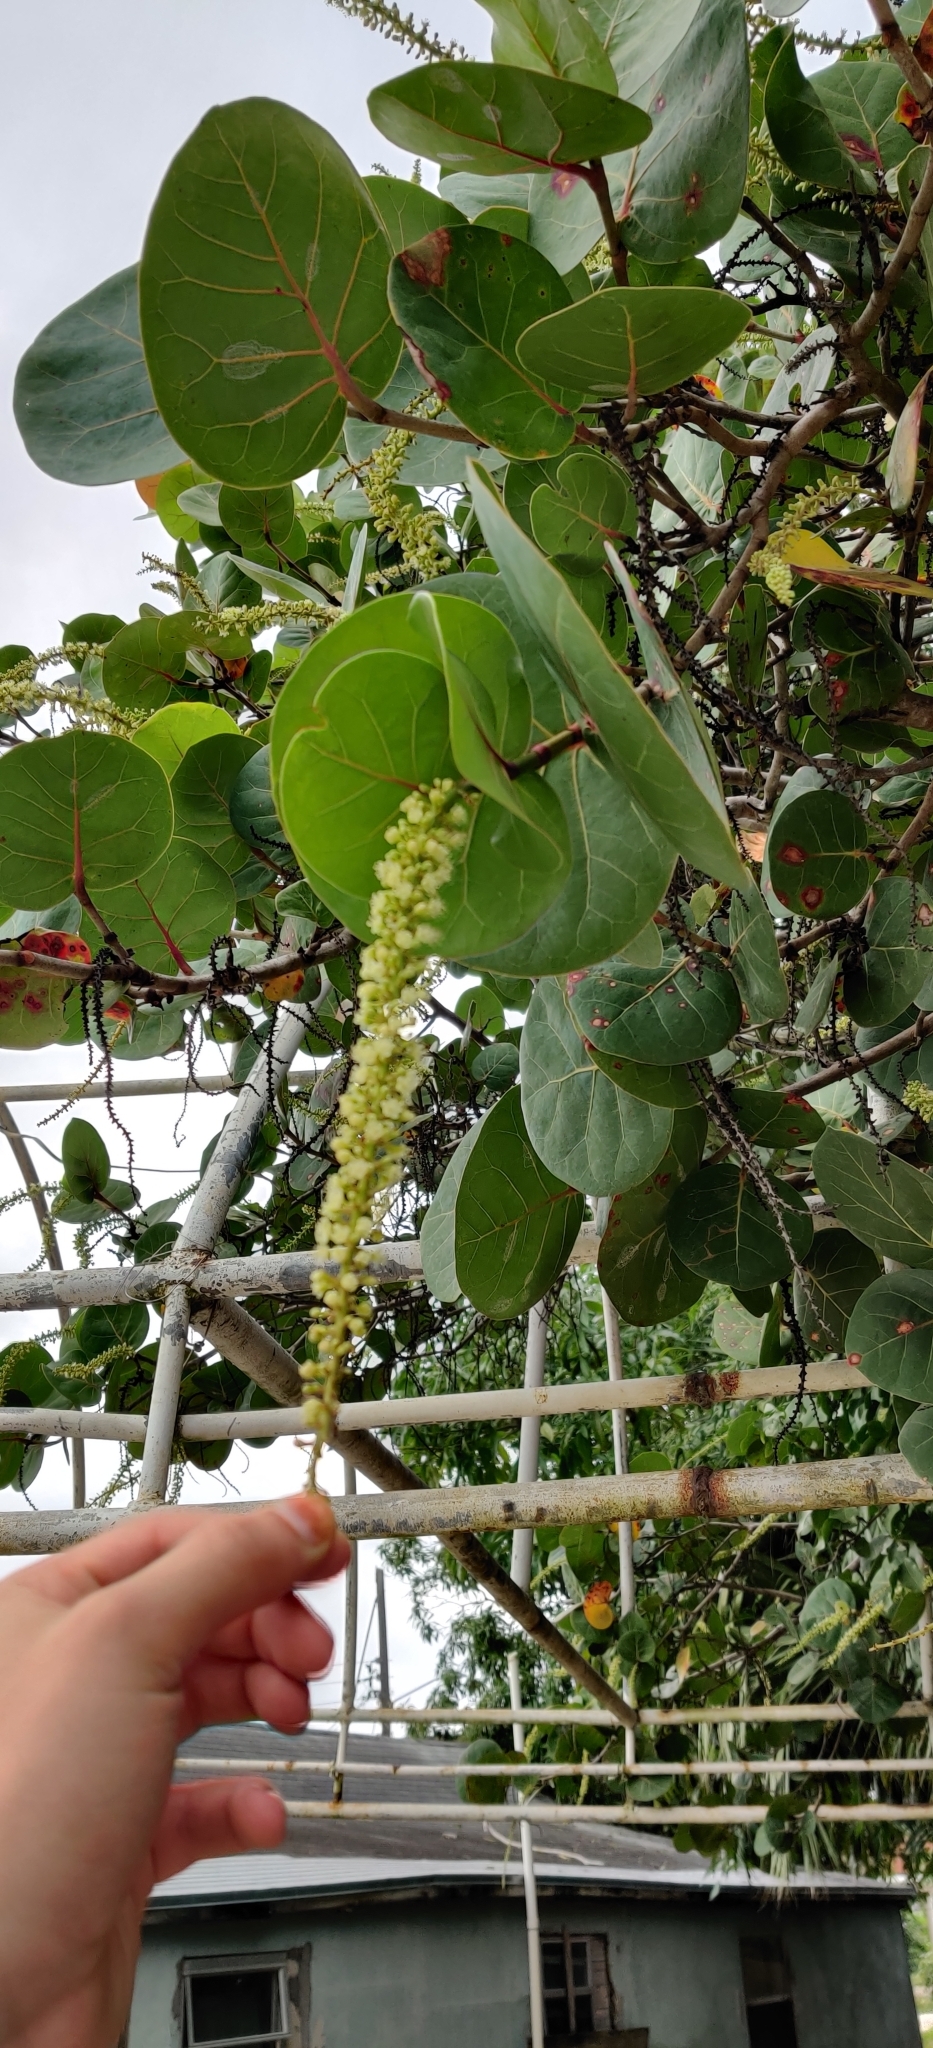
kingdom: Plantae
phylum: Tracheophyta
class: Magnoliopsida
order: Caryophyllales
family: Polygonaceae
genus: Coccoloba
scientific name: Coccoloba uvifera
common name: Seagrape
